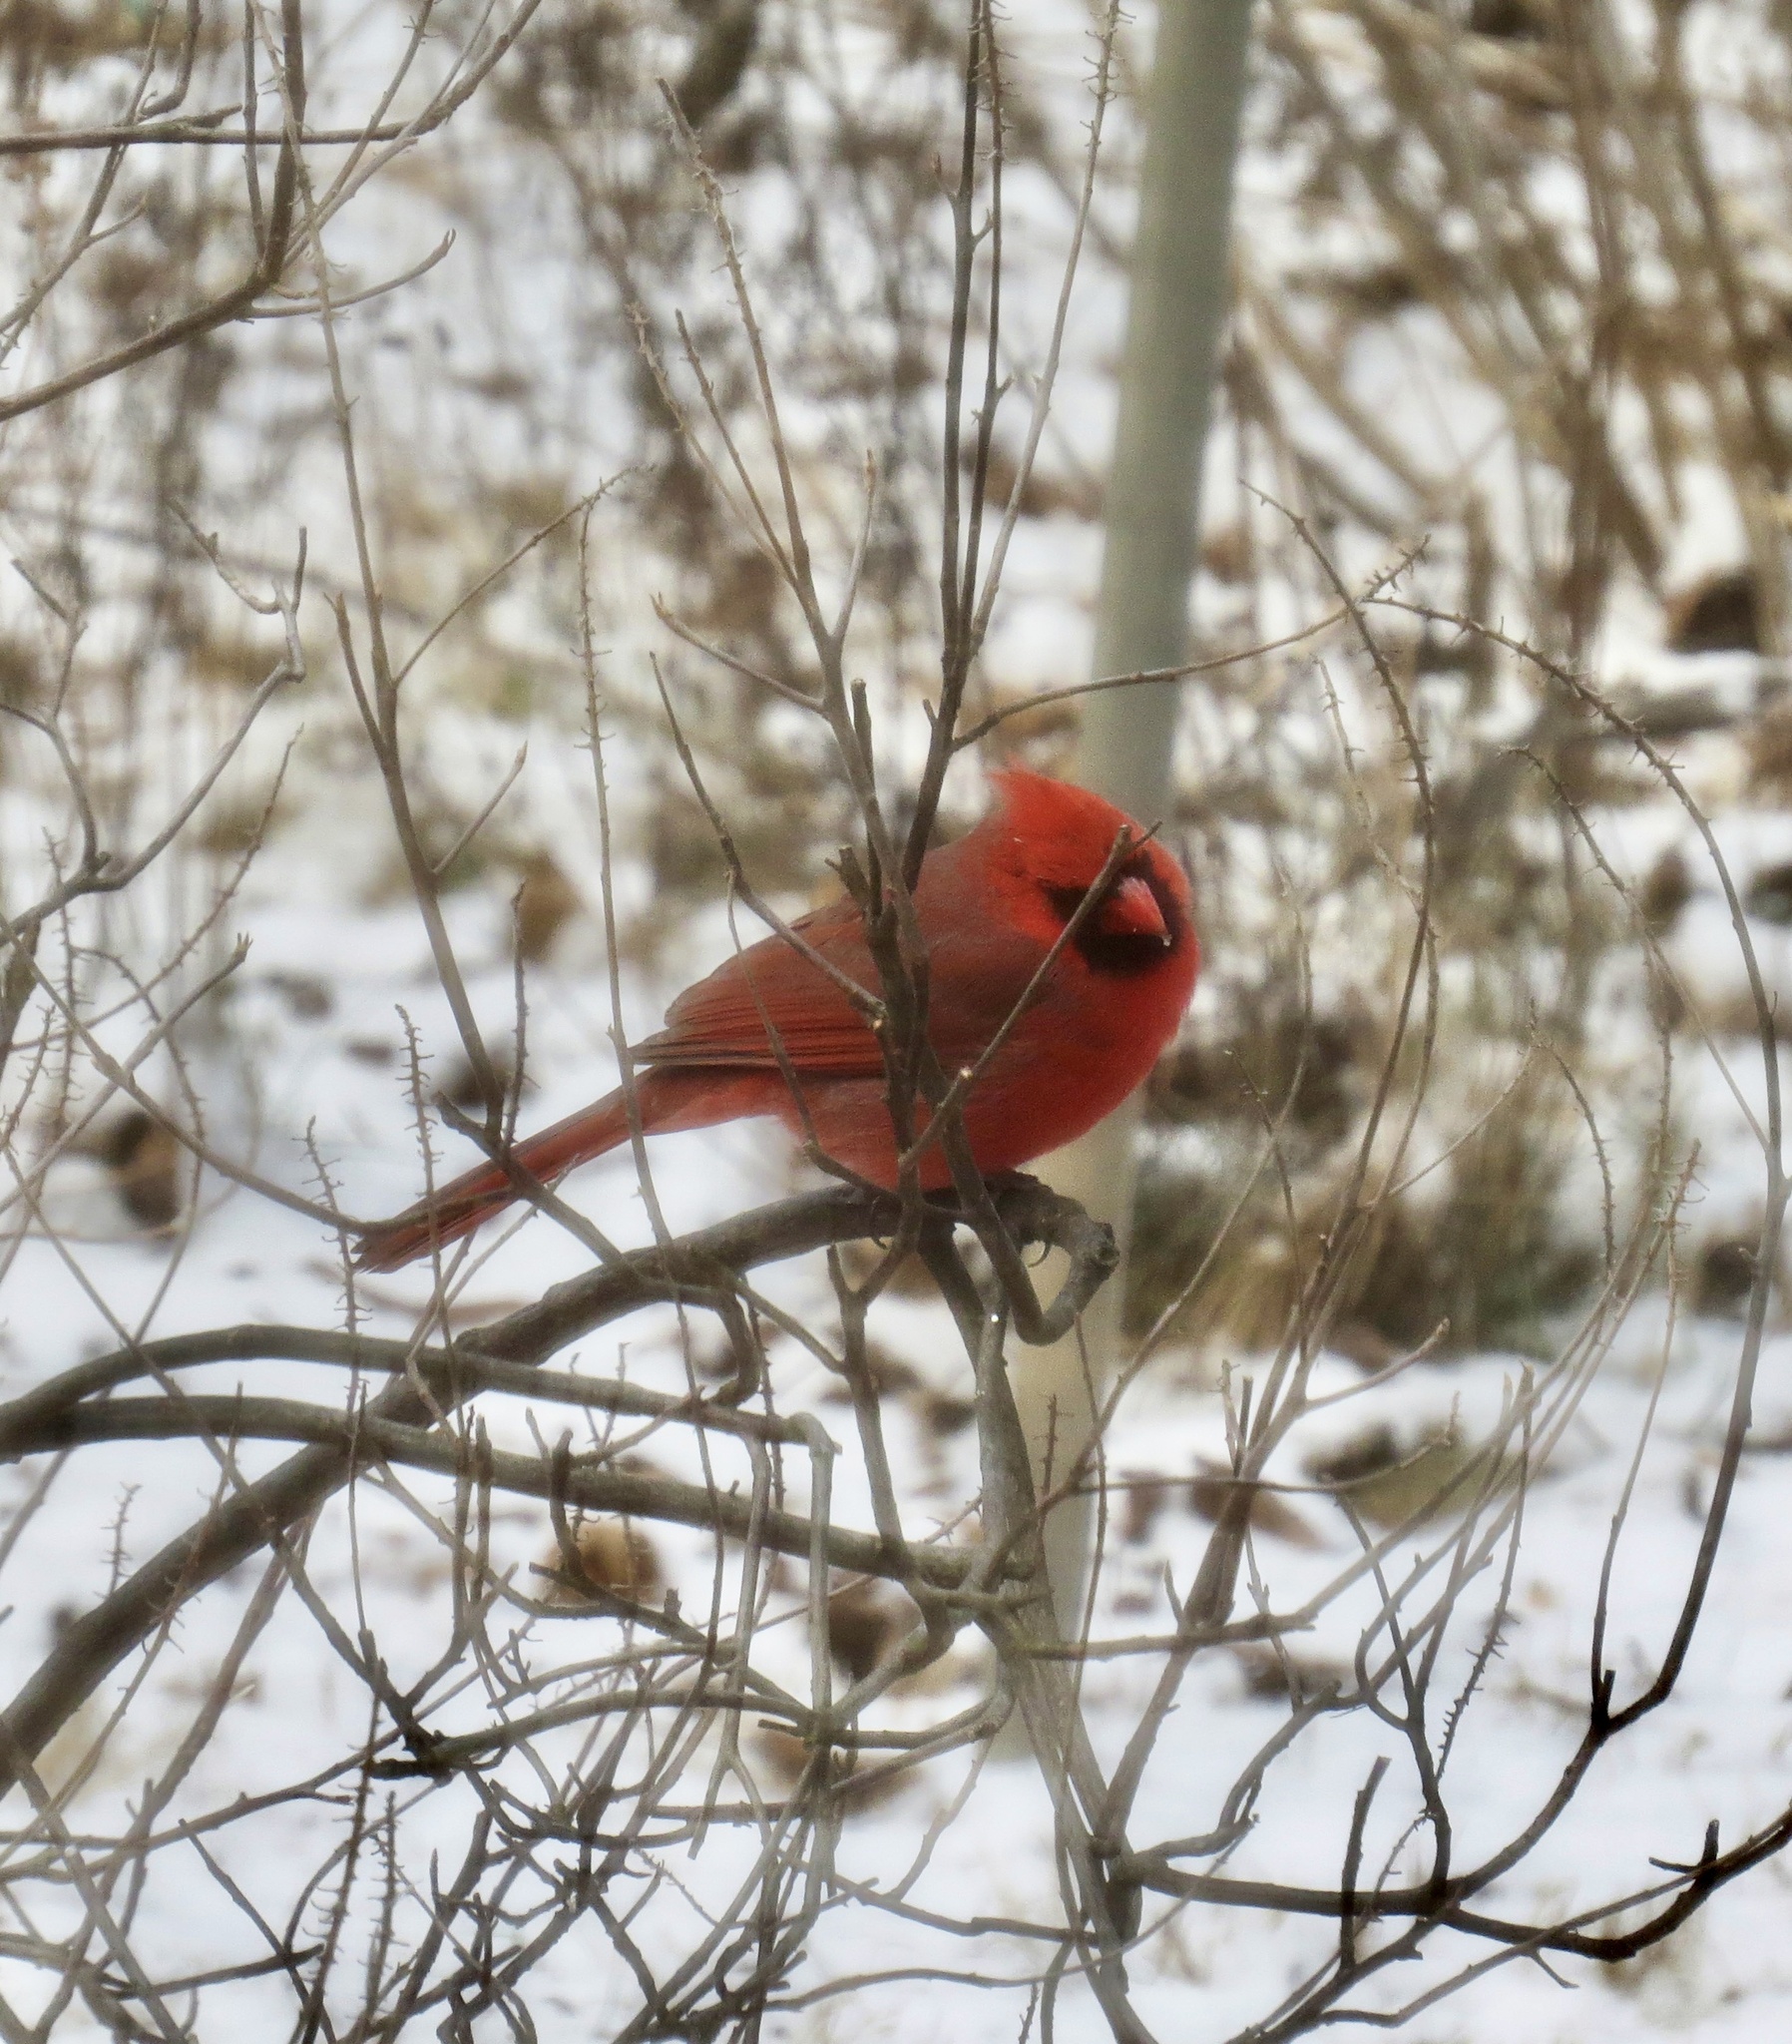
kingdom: Animalia
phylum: Chordata
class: Aves
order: Passeriformes
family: Cardinalidae
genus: Cardinalis
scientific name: Cardinalis cardinalis
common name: Northern cardinal
